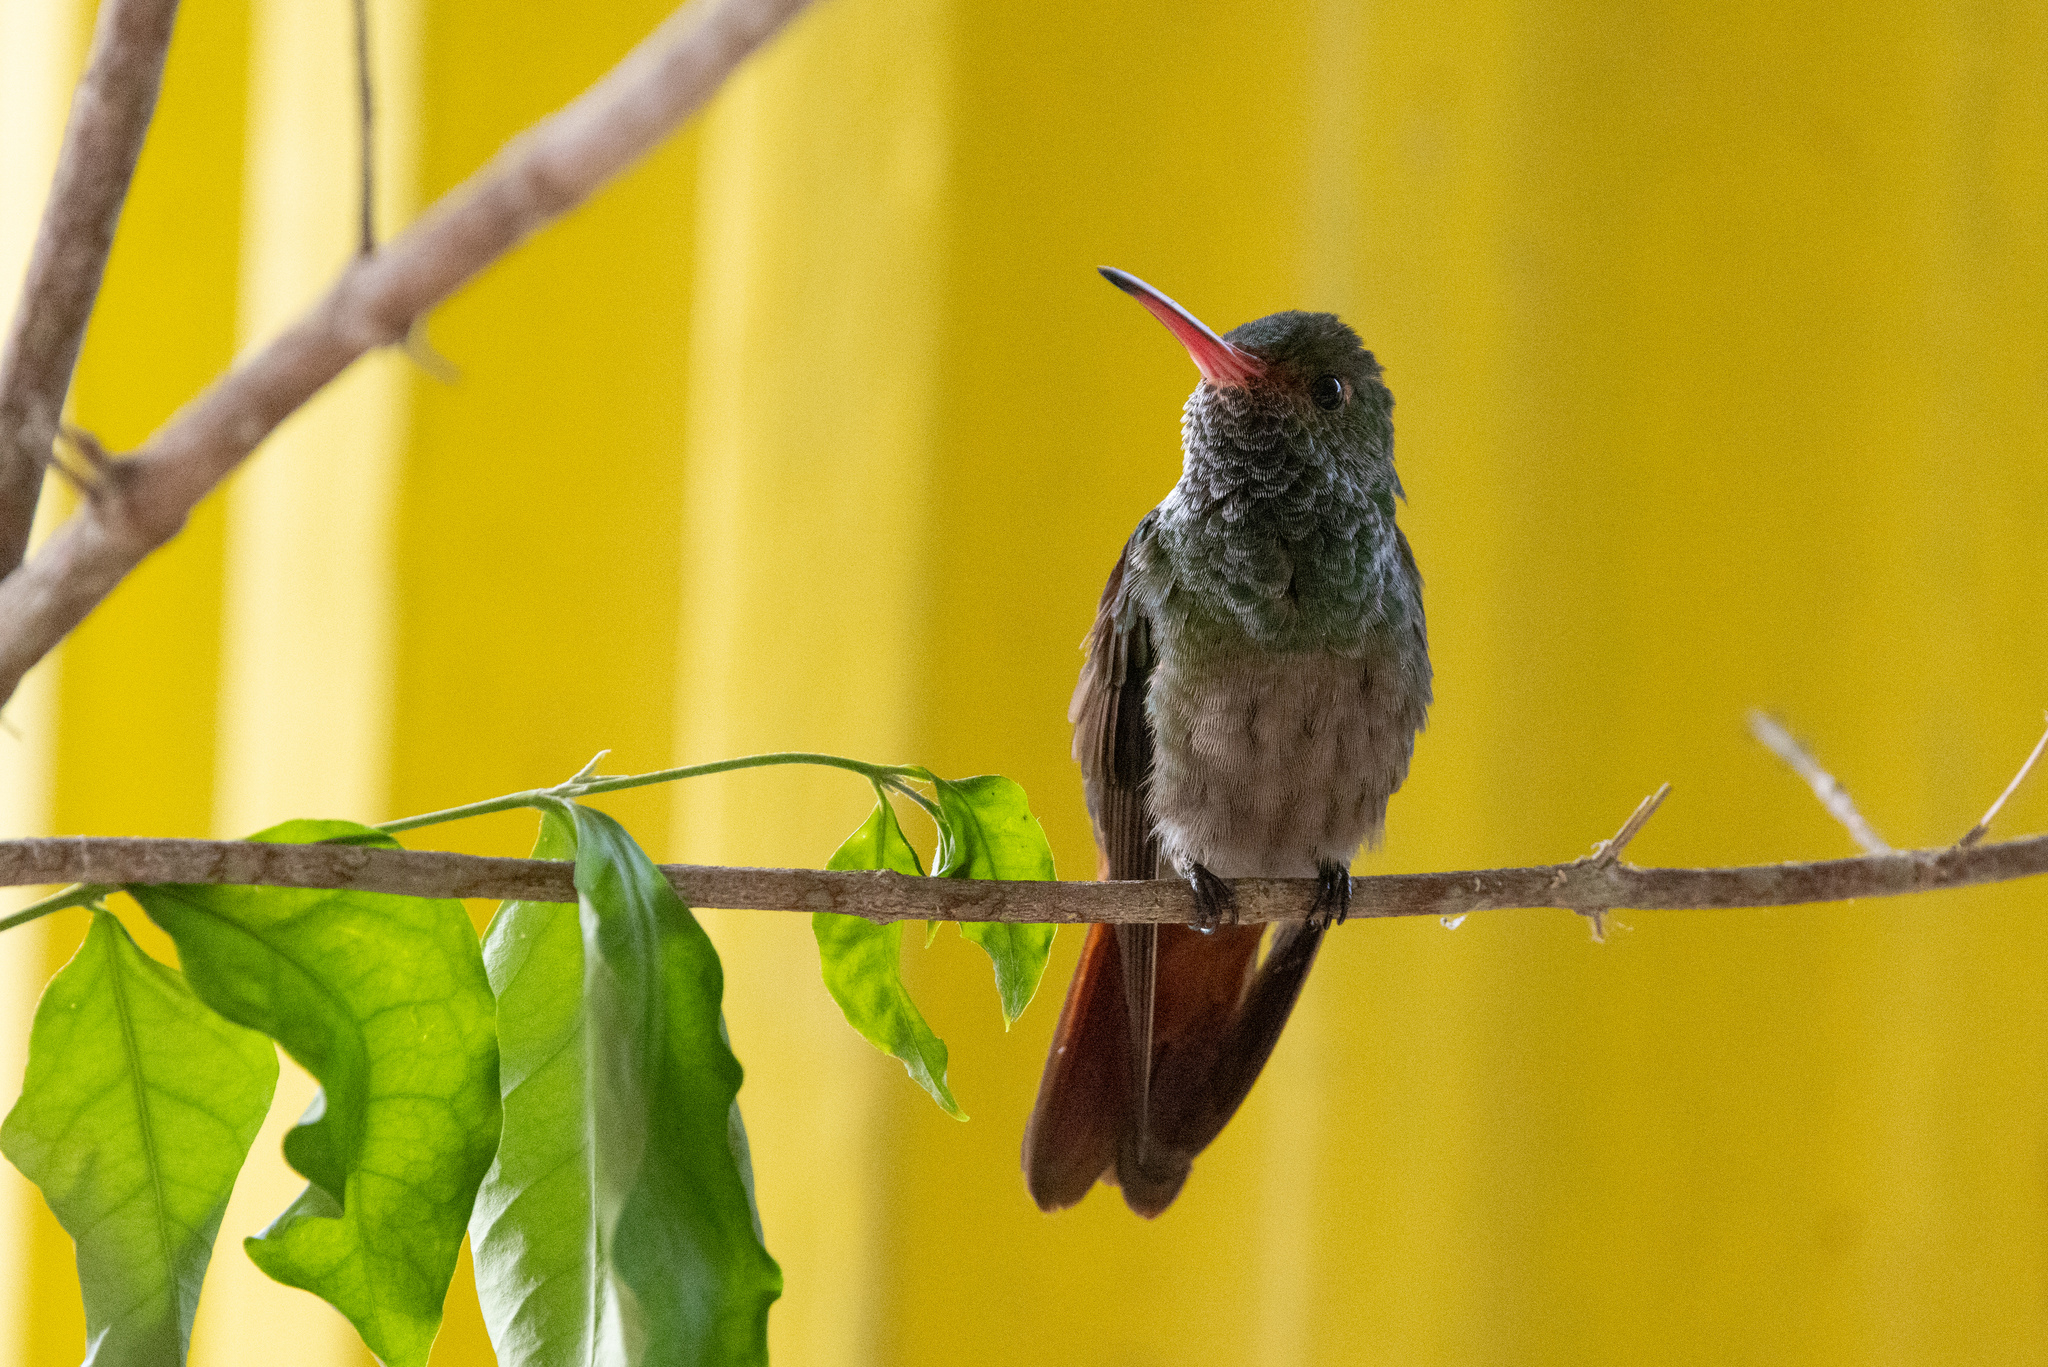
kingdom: Animalia
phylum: Chordata
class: Aves
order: Apodiformes
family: Trochilidae
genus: Amazilia
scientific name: Amazilia tzacatl
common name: Rufous-tailed hummingbird
